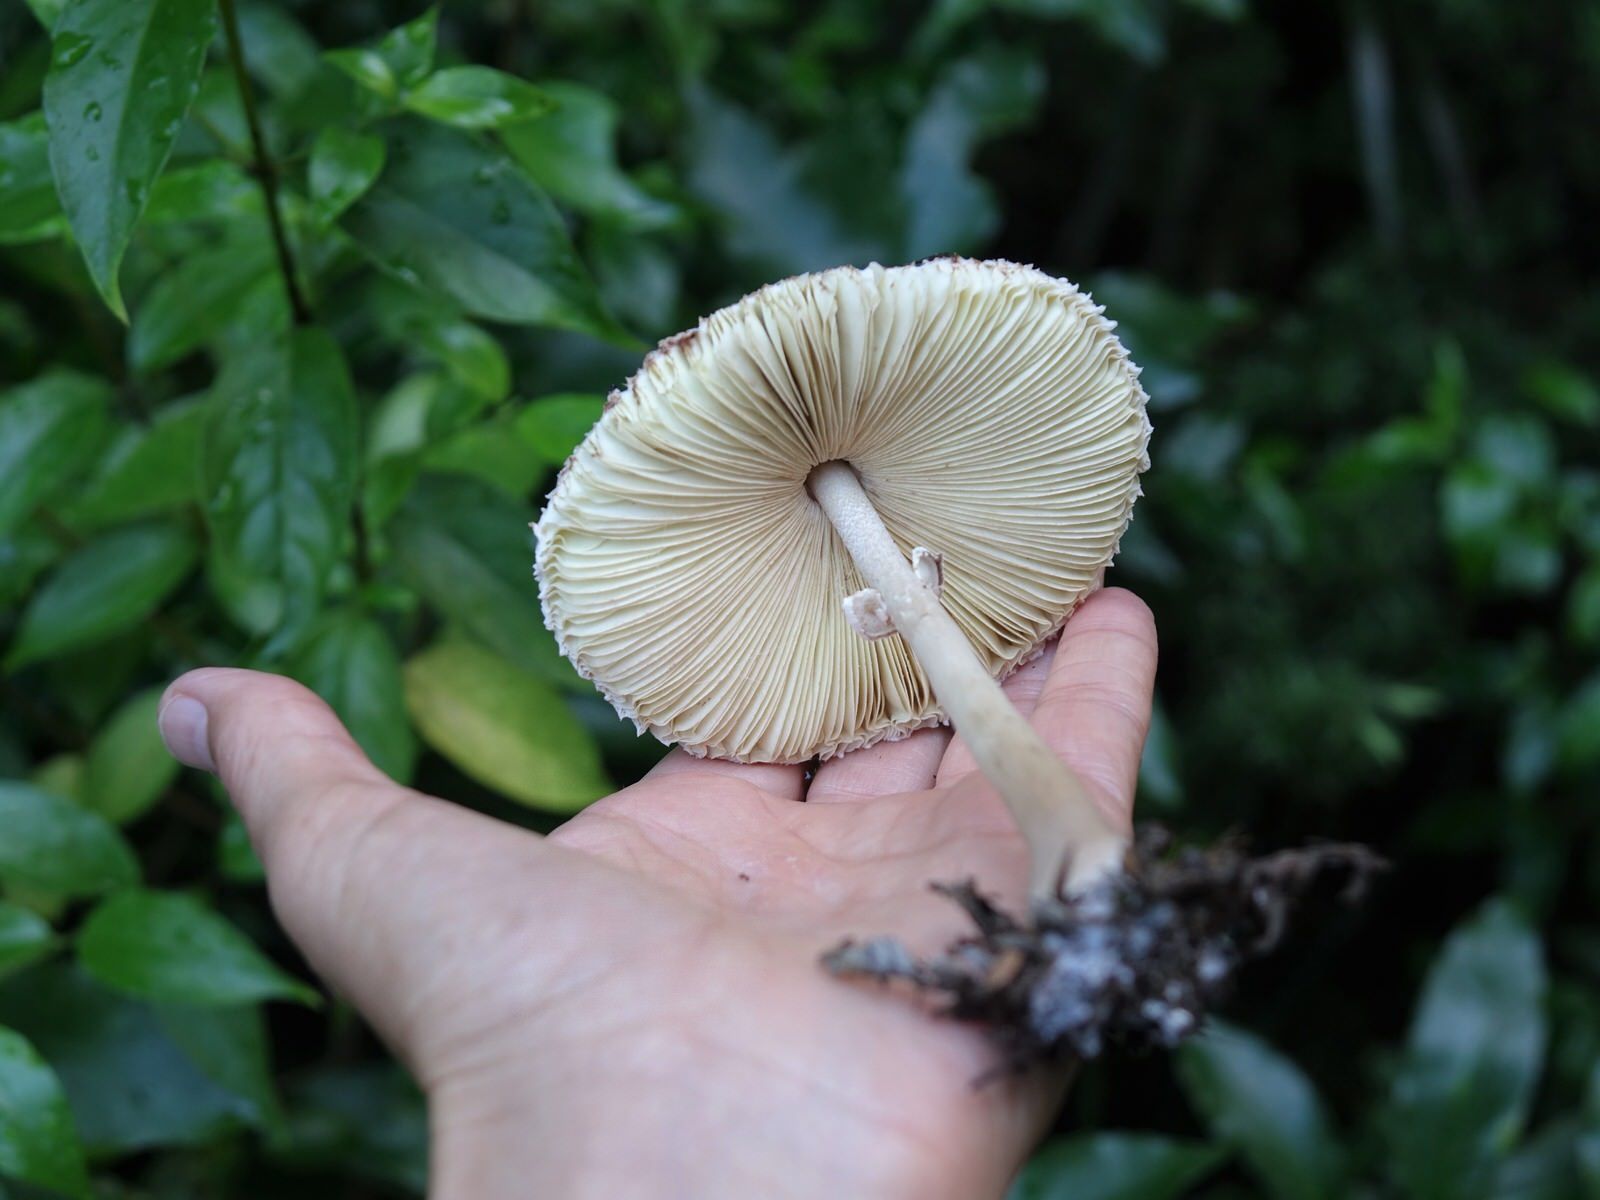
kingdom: Fungi
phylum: Basidiomycota
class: Agaricomycetes
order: Agaricales
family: Agaricaceae
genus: Macrolepiota
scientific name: Macrolepiota clelandii
